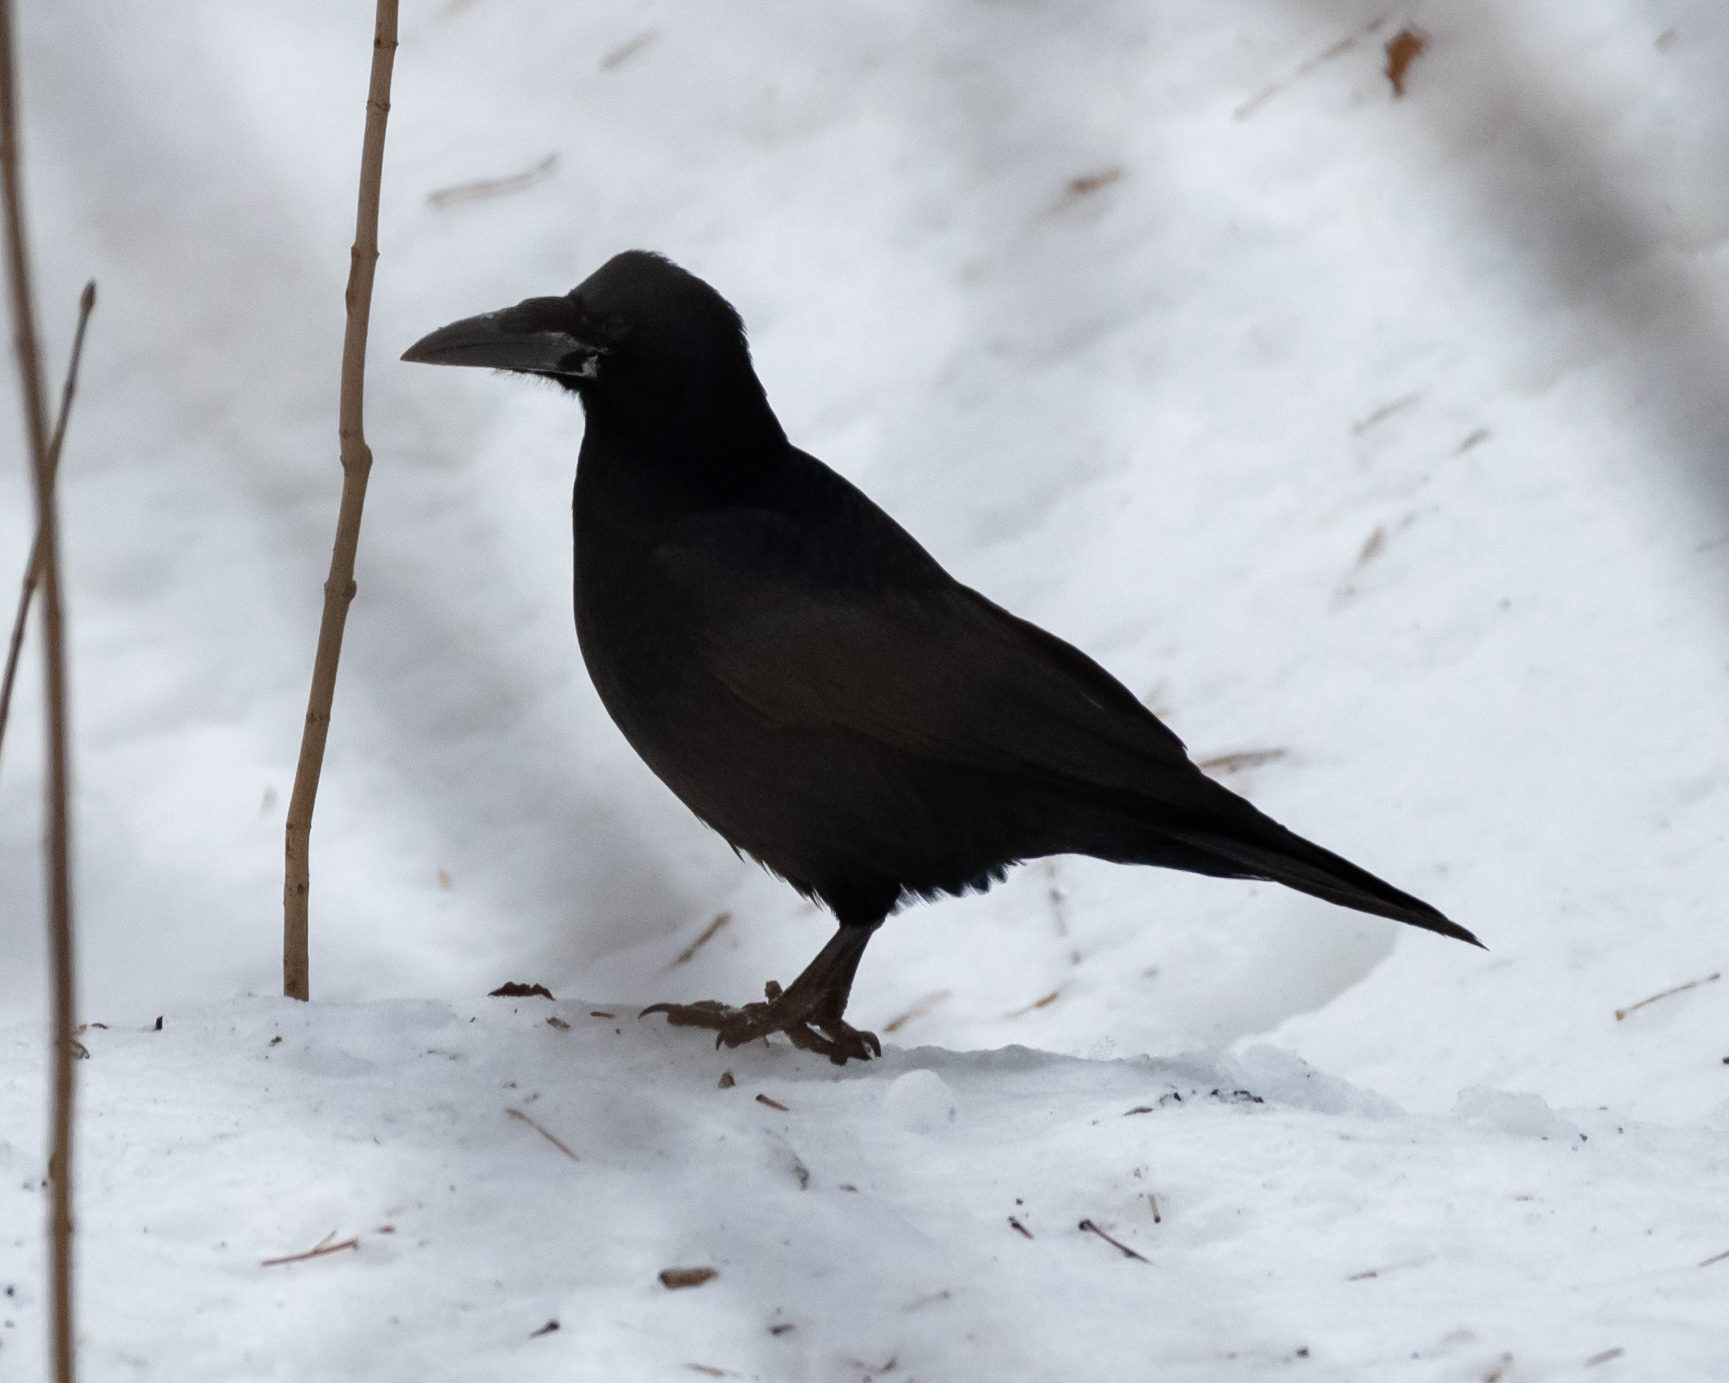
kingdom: Animalia
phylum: Chordata
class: Aves
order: Passeriformes
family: Corvidae
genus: Corvus
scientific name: Corvus frugilegus
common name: Rook
